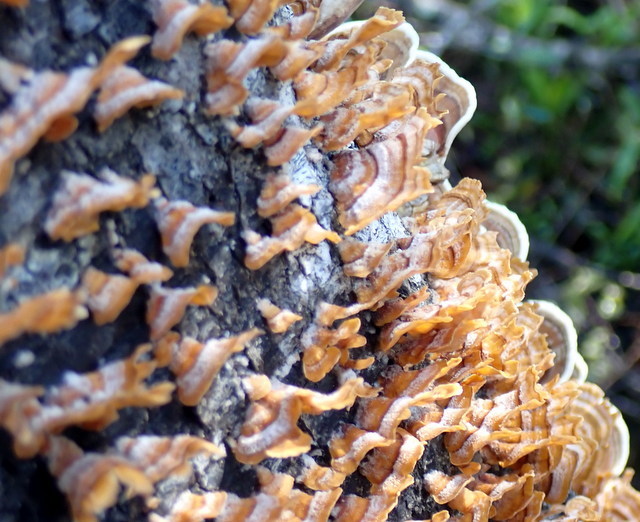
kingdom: Fungi
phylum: Basidiomycota
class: Agaricomycetes
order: Russulales
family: Stereaceae
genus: Stereum
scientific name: Stereum complicatum
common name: Crowded parchment
